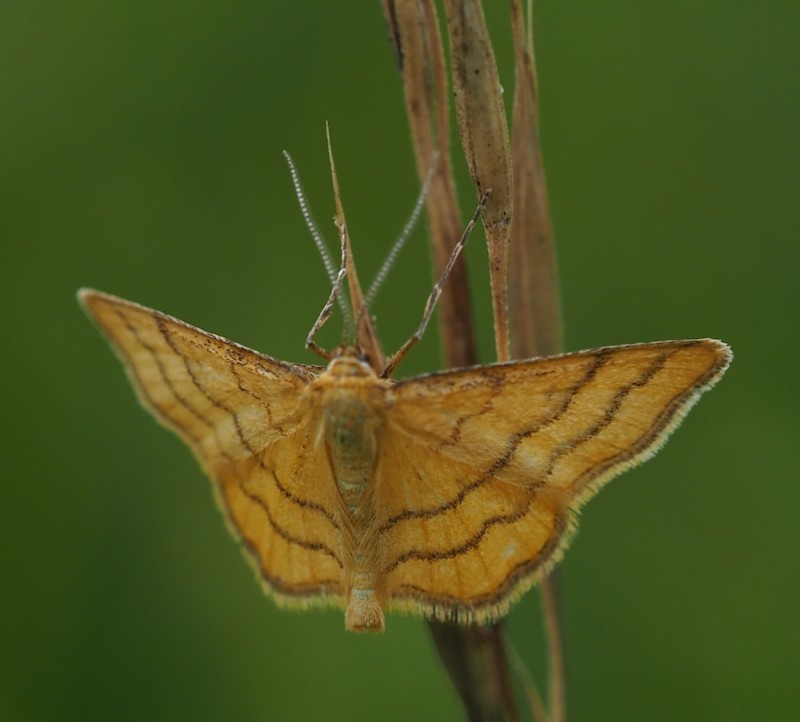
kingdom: Animalia
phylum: Arthropoda
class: Insecta
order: Lepidoptera
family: Geometridae
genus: Idaea
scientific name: Idaea aureolaria
